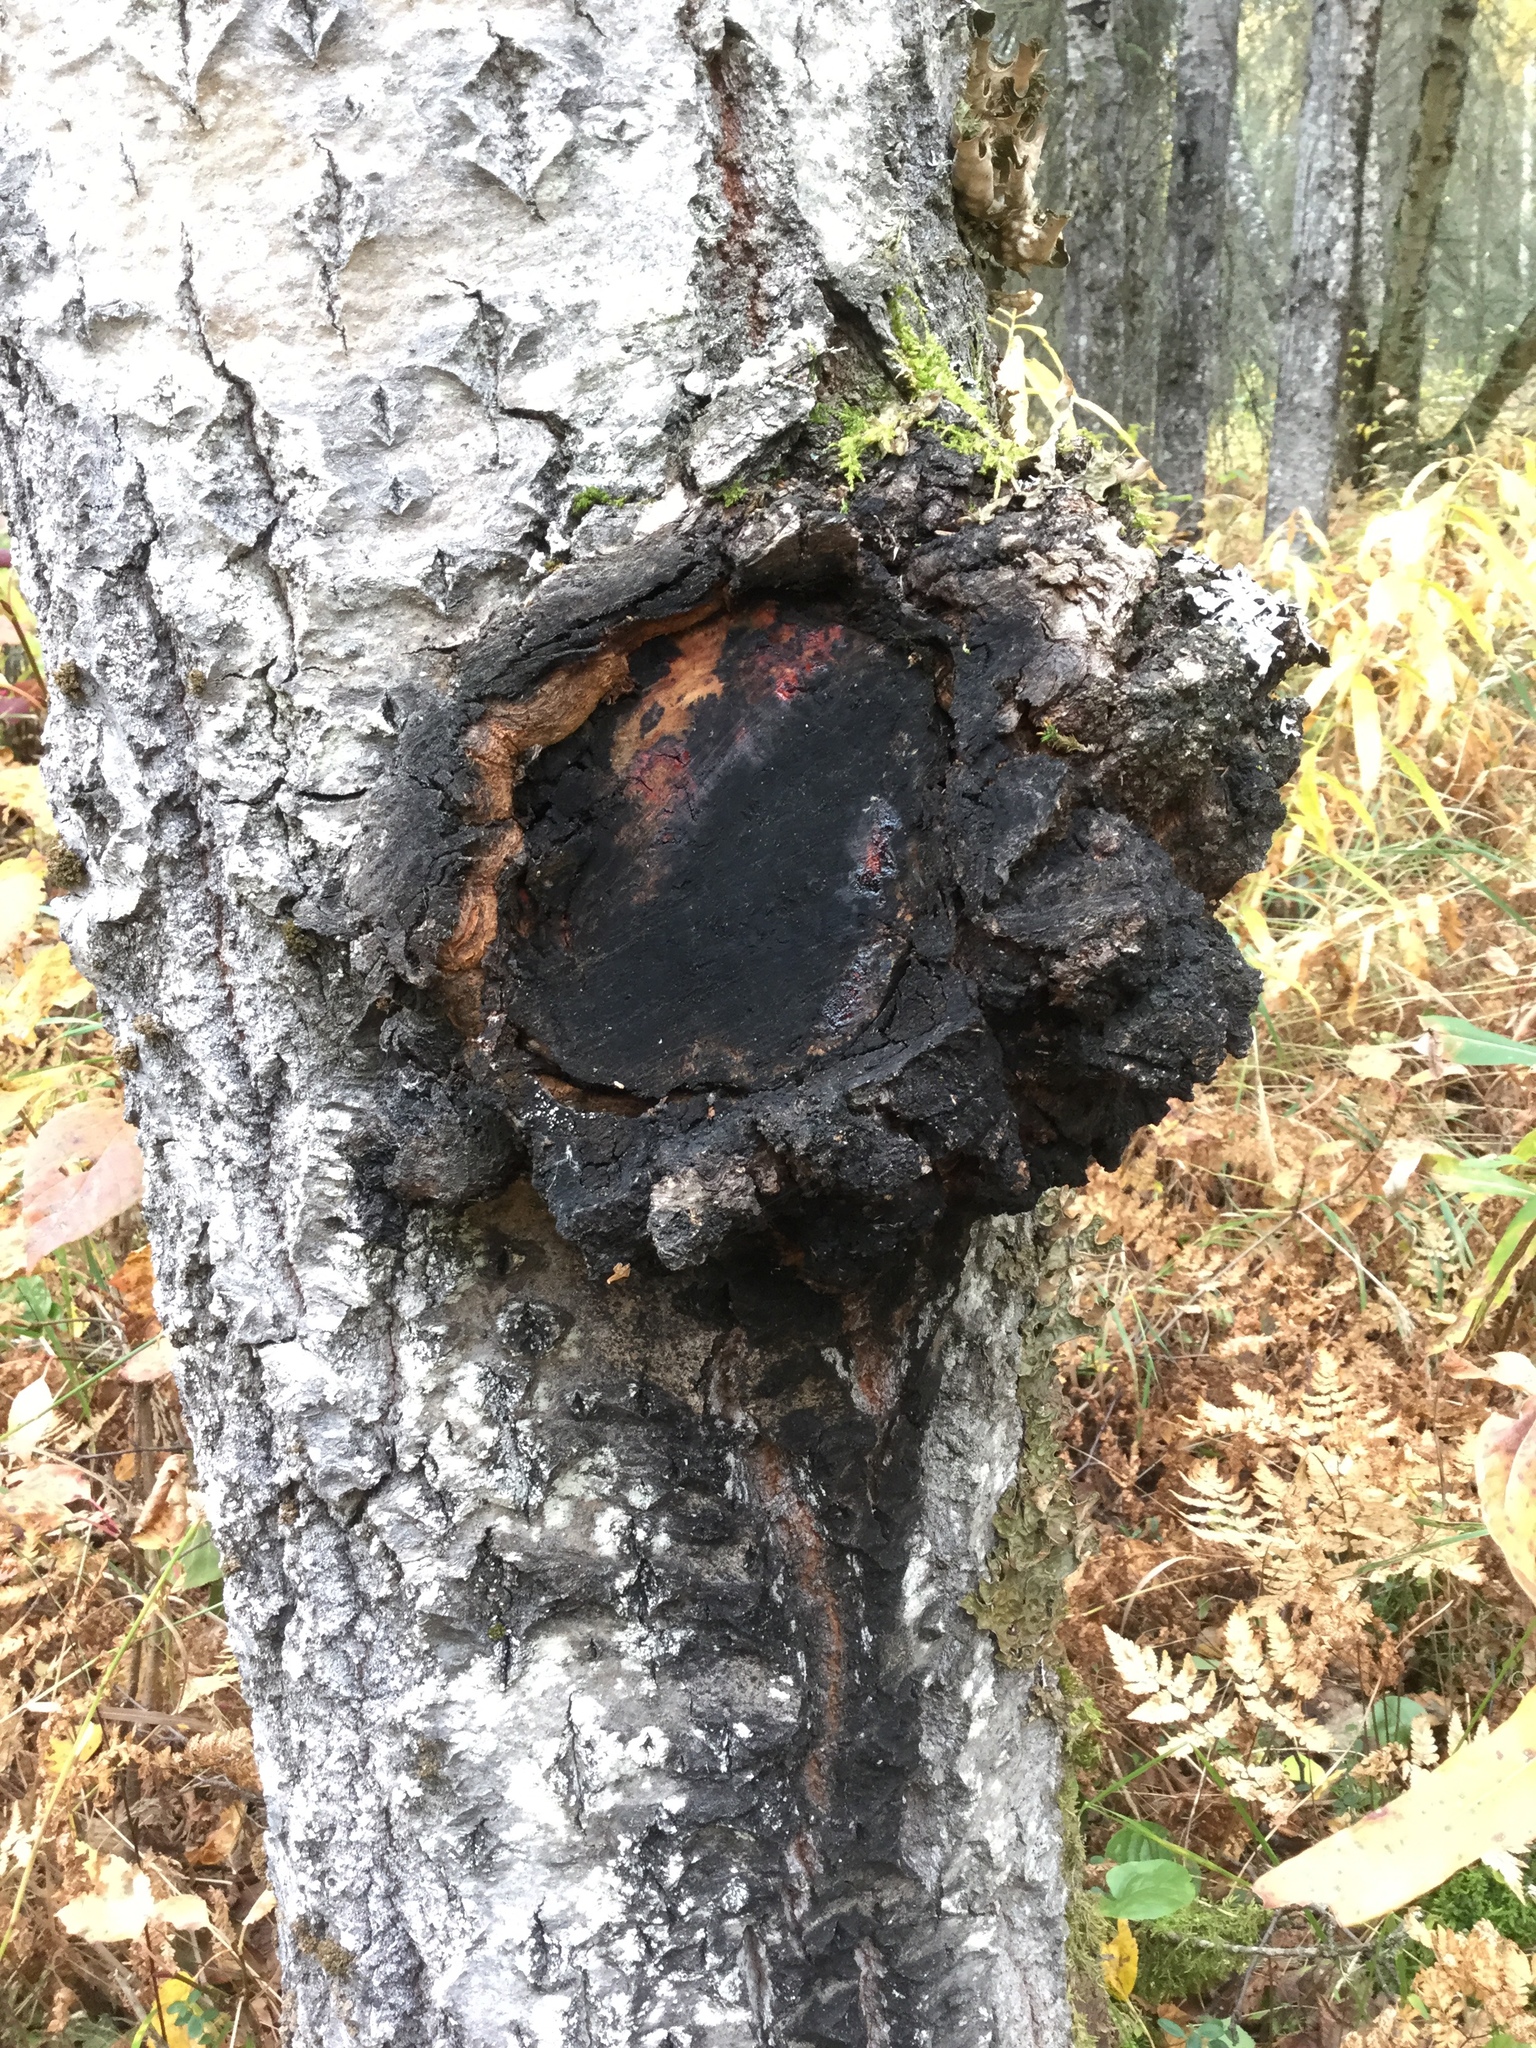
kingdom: Fungi
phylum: Ascomycota
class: Dothideomycetes
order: Botryosphaeriales
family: Botryosphaeriaceae
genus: Diplodia
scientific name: Diplodia tumefaciens
